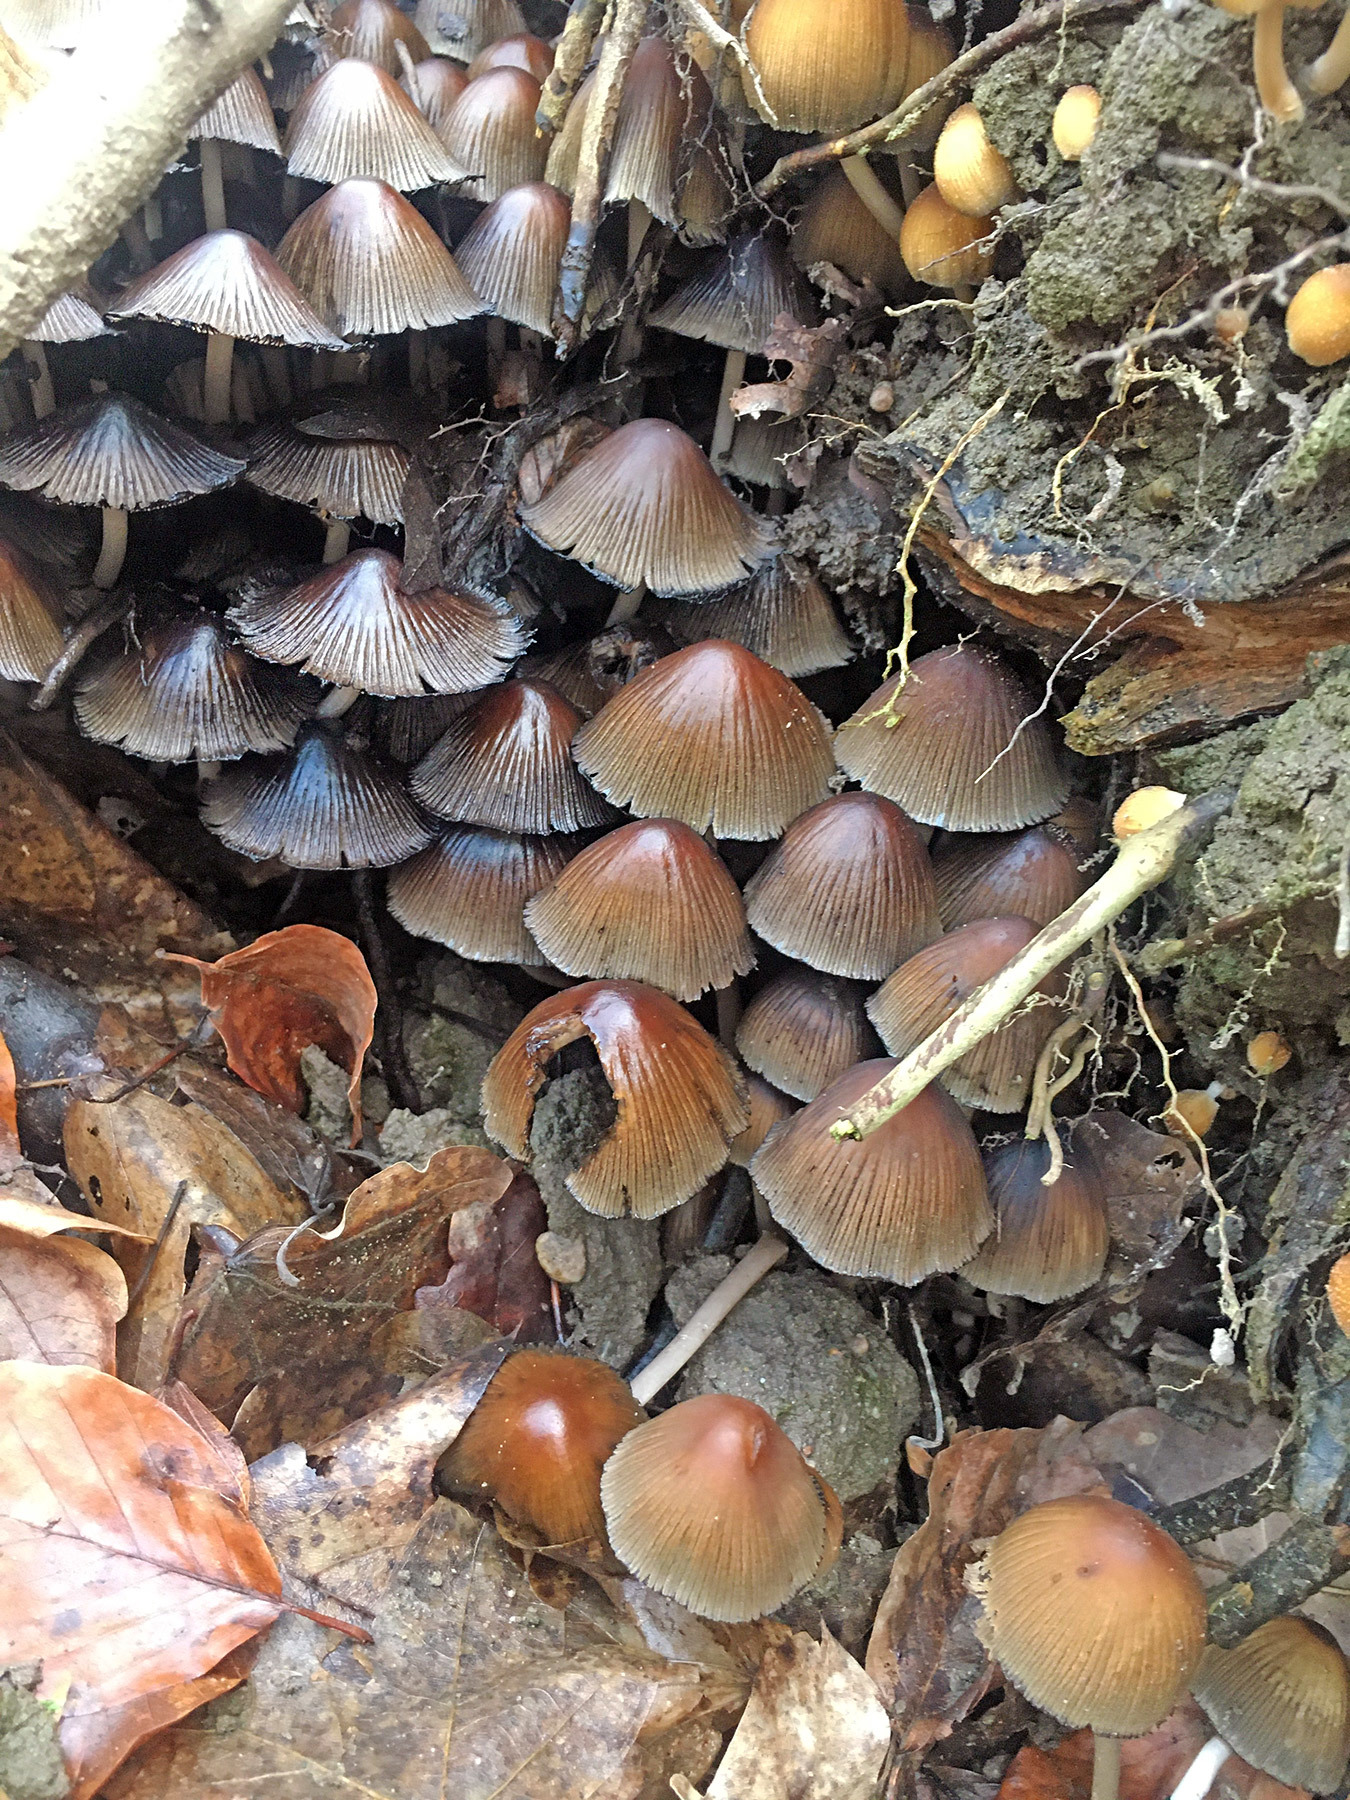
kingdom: Fungi
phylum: Basidiomycota
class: Agaricomycetes
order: Agaricales
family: Psathyrellaceae
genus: Coprinellus
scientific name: Coprinellus micaceus
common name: Glistening ink-cap
